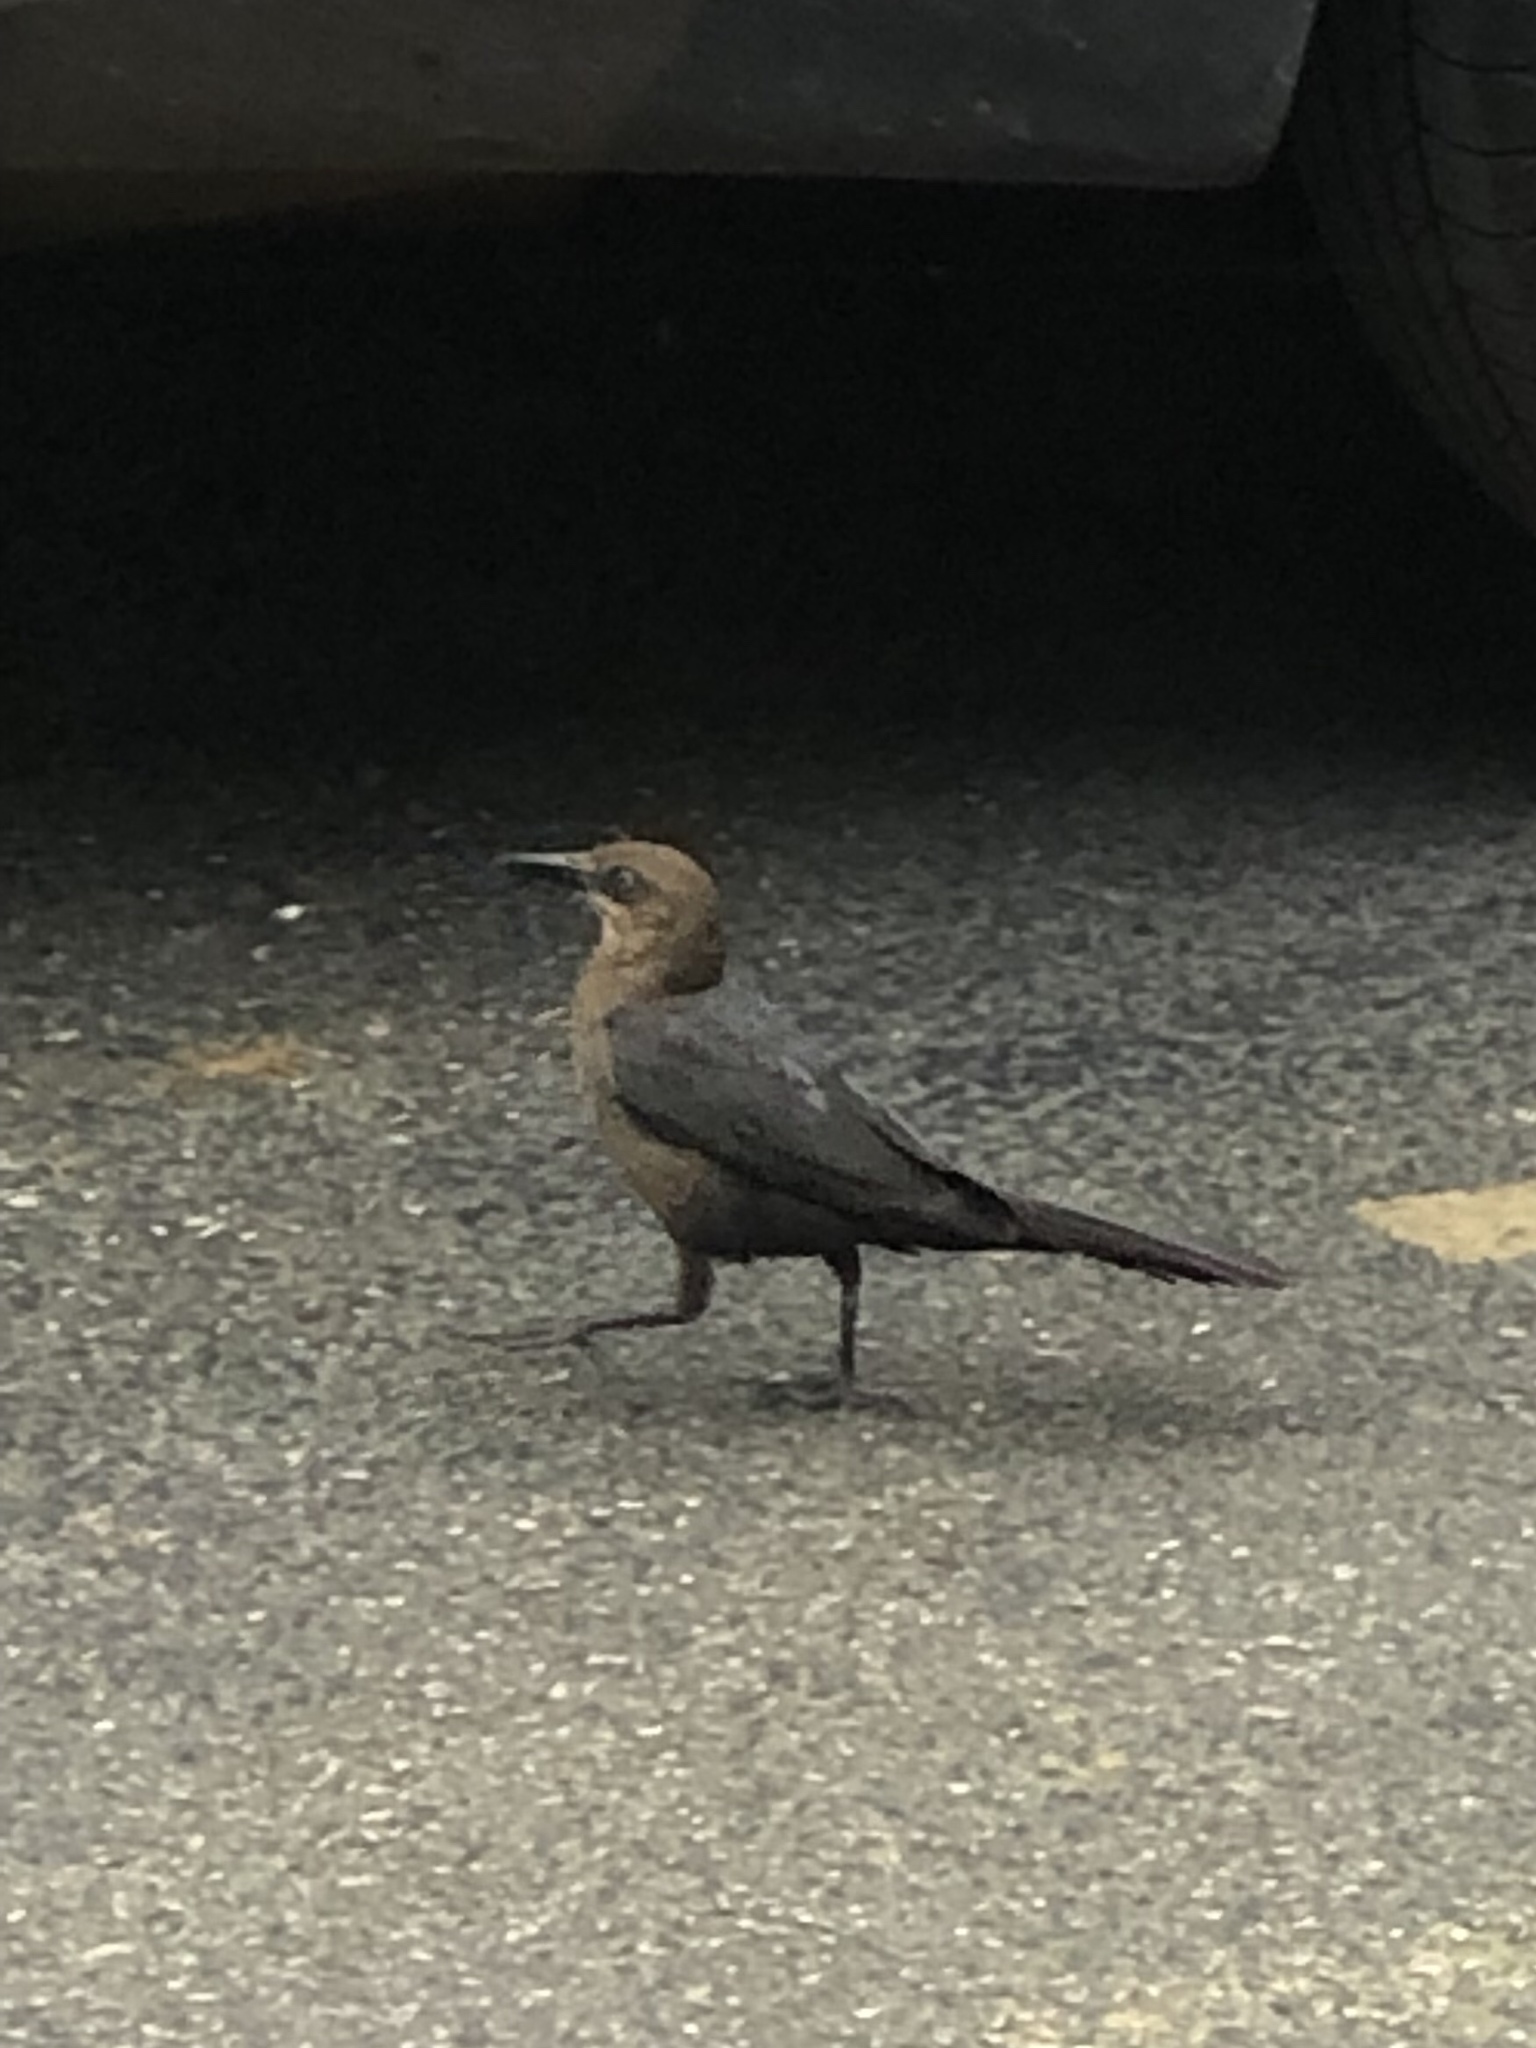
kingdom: Animalia
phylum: Chordata
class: Aves
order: Passeriformes
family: Icteridae
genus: Quiscalus
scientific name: Quiscalus mexicanus
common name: Great-tailed grackle
